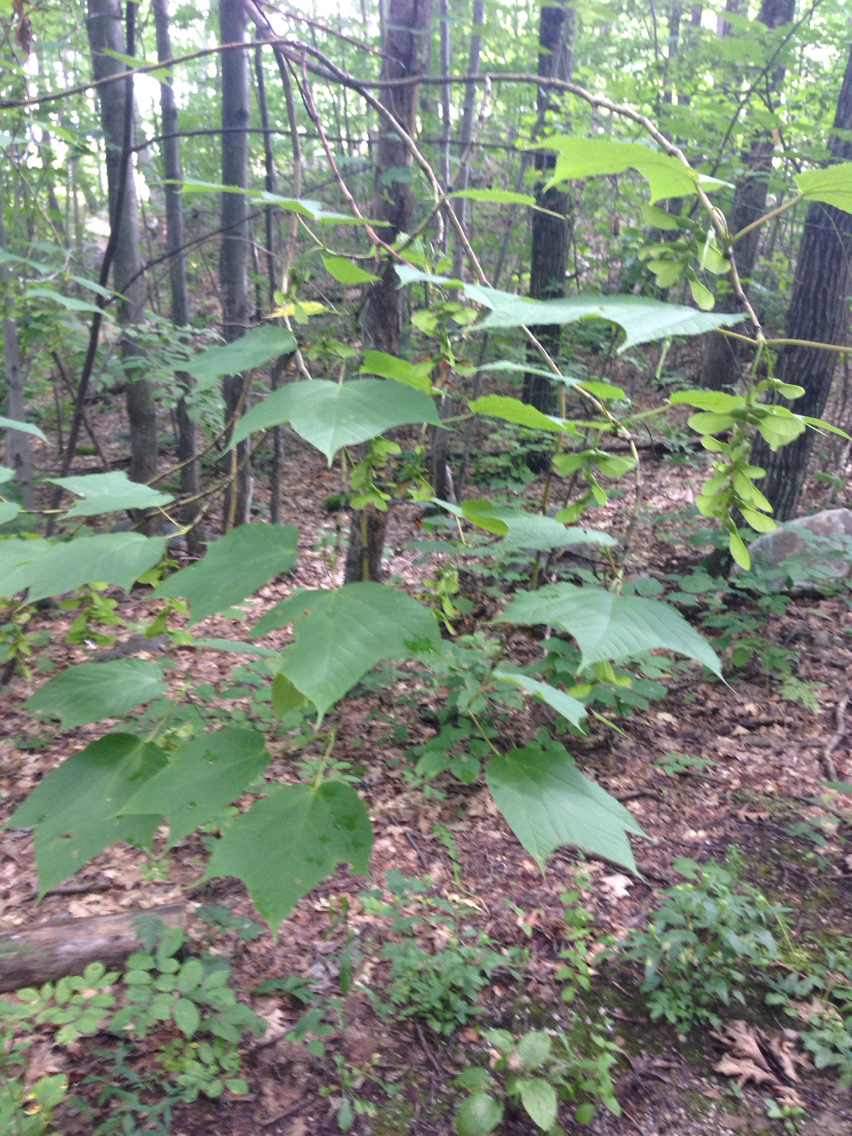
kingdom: Plantae
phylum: Tracheophyta
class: Magnoliopsida
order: Sapindales
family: Sapindaceae
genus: Acer
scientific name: Acer pensylvanicum
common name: Moosewood
